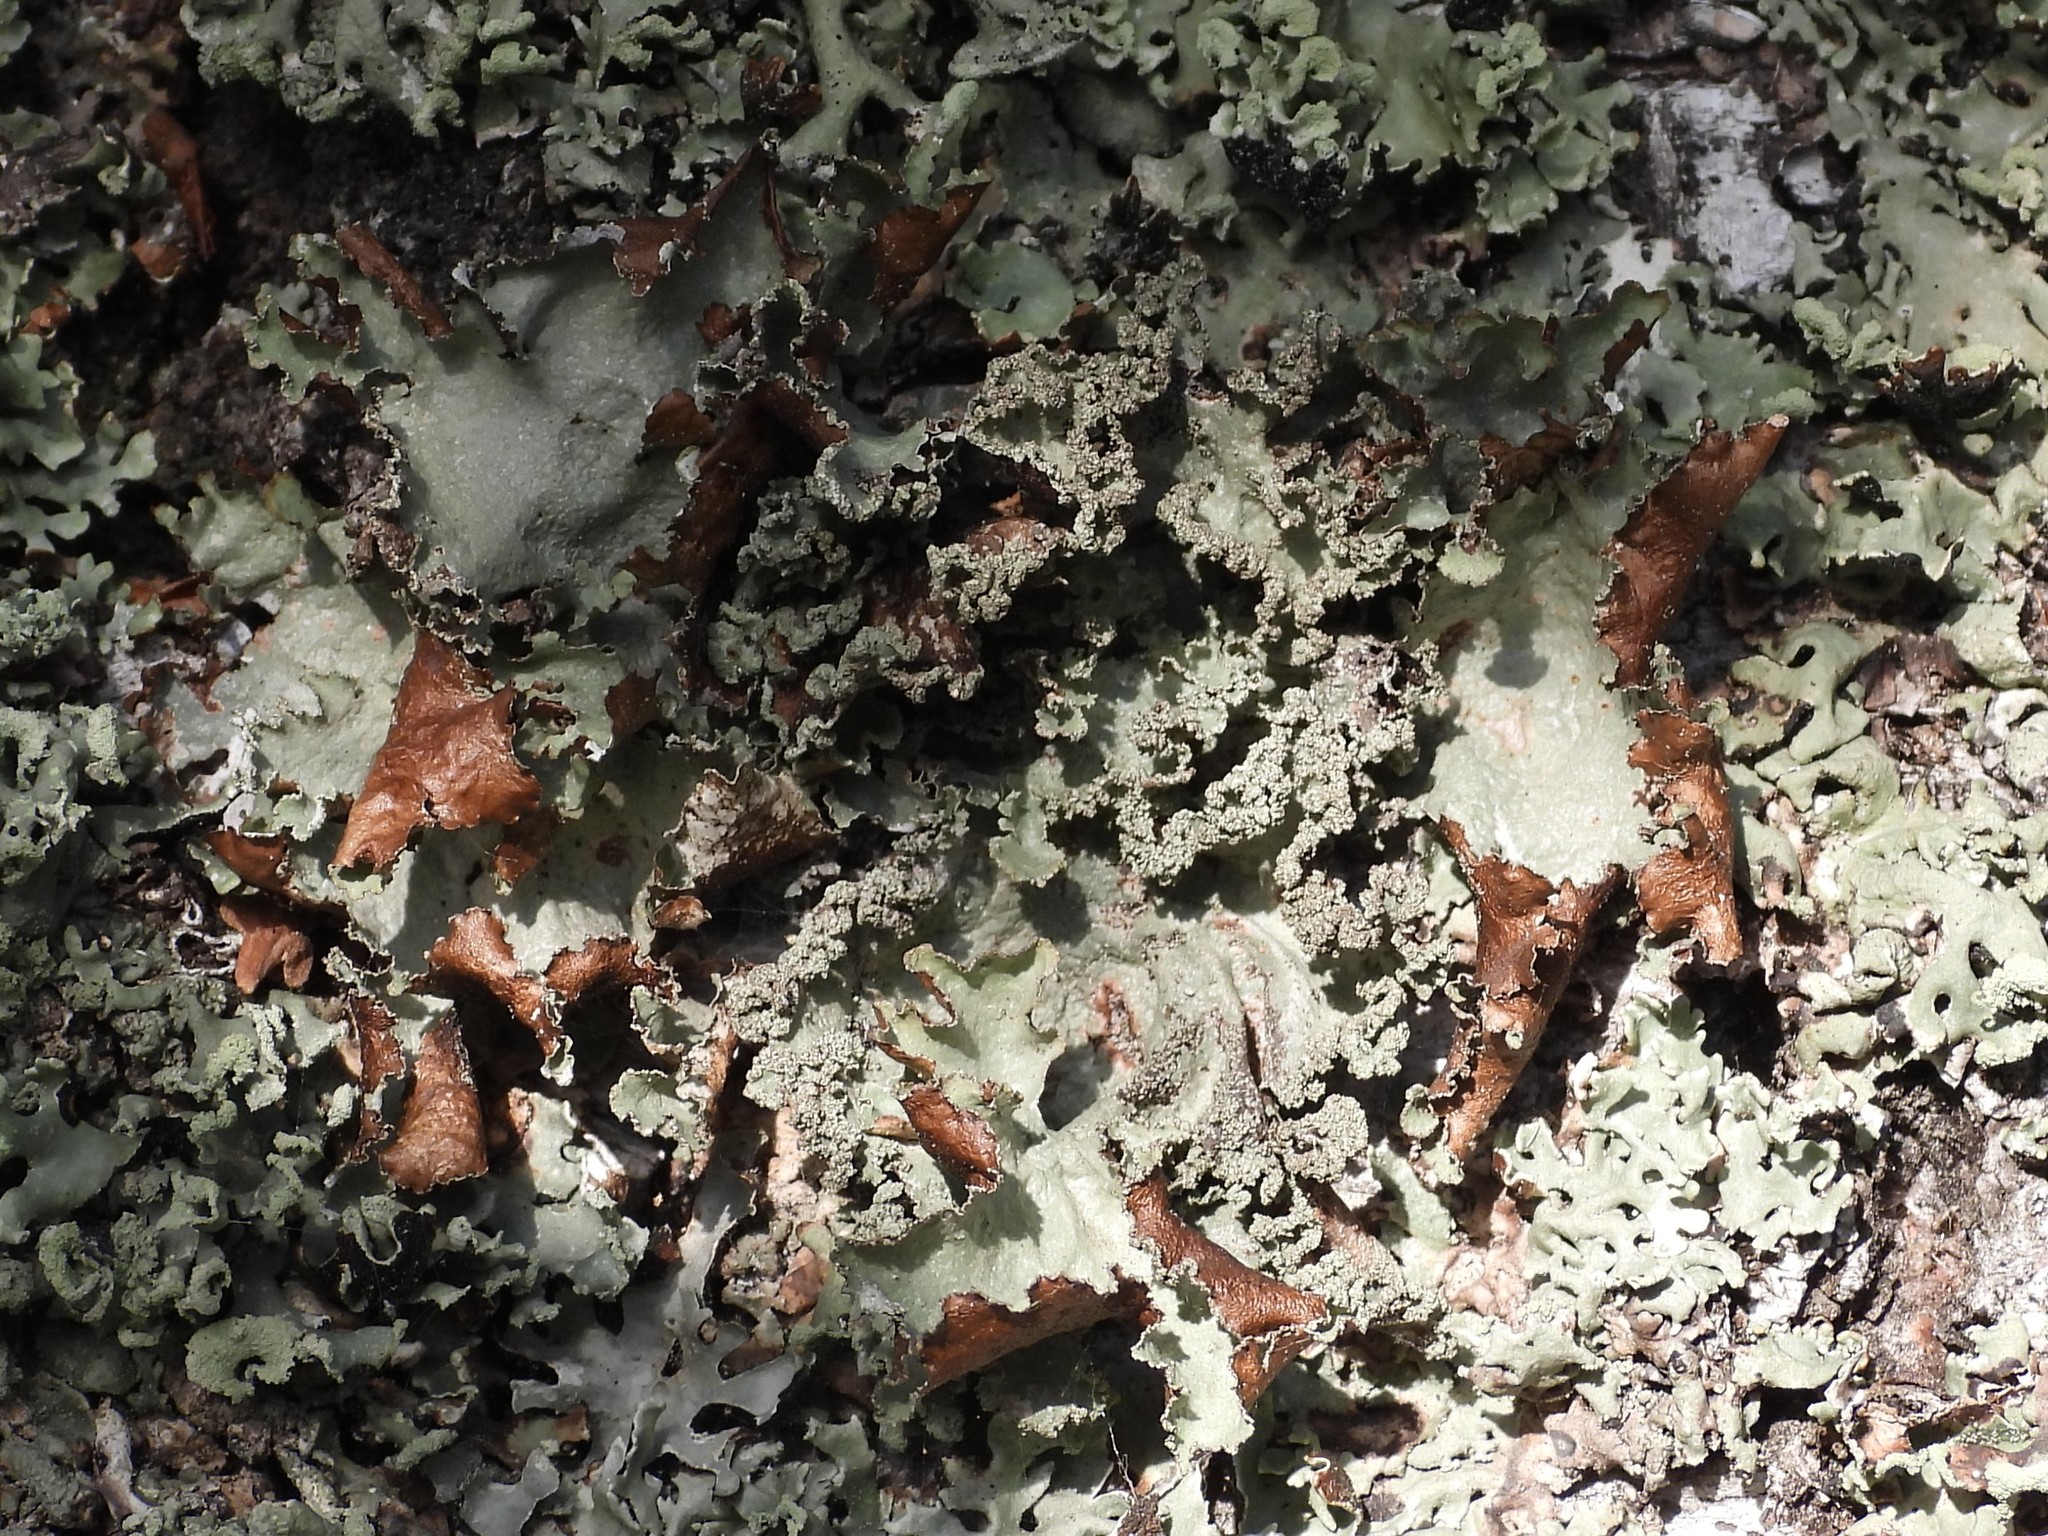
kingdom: Fungi
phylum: Ascomycota
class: Lecanoromycetes
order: Lecanorales
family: Parmeliaceae
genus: Platismatia
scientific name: Platismatia glauca
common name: Varied rag lichen
